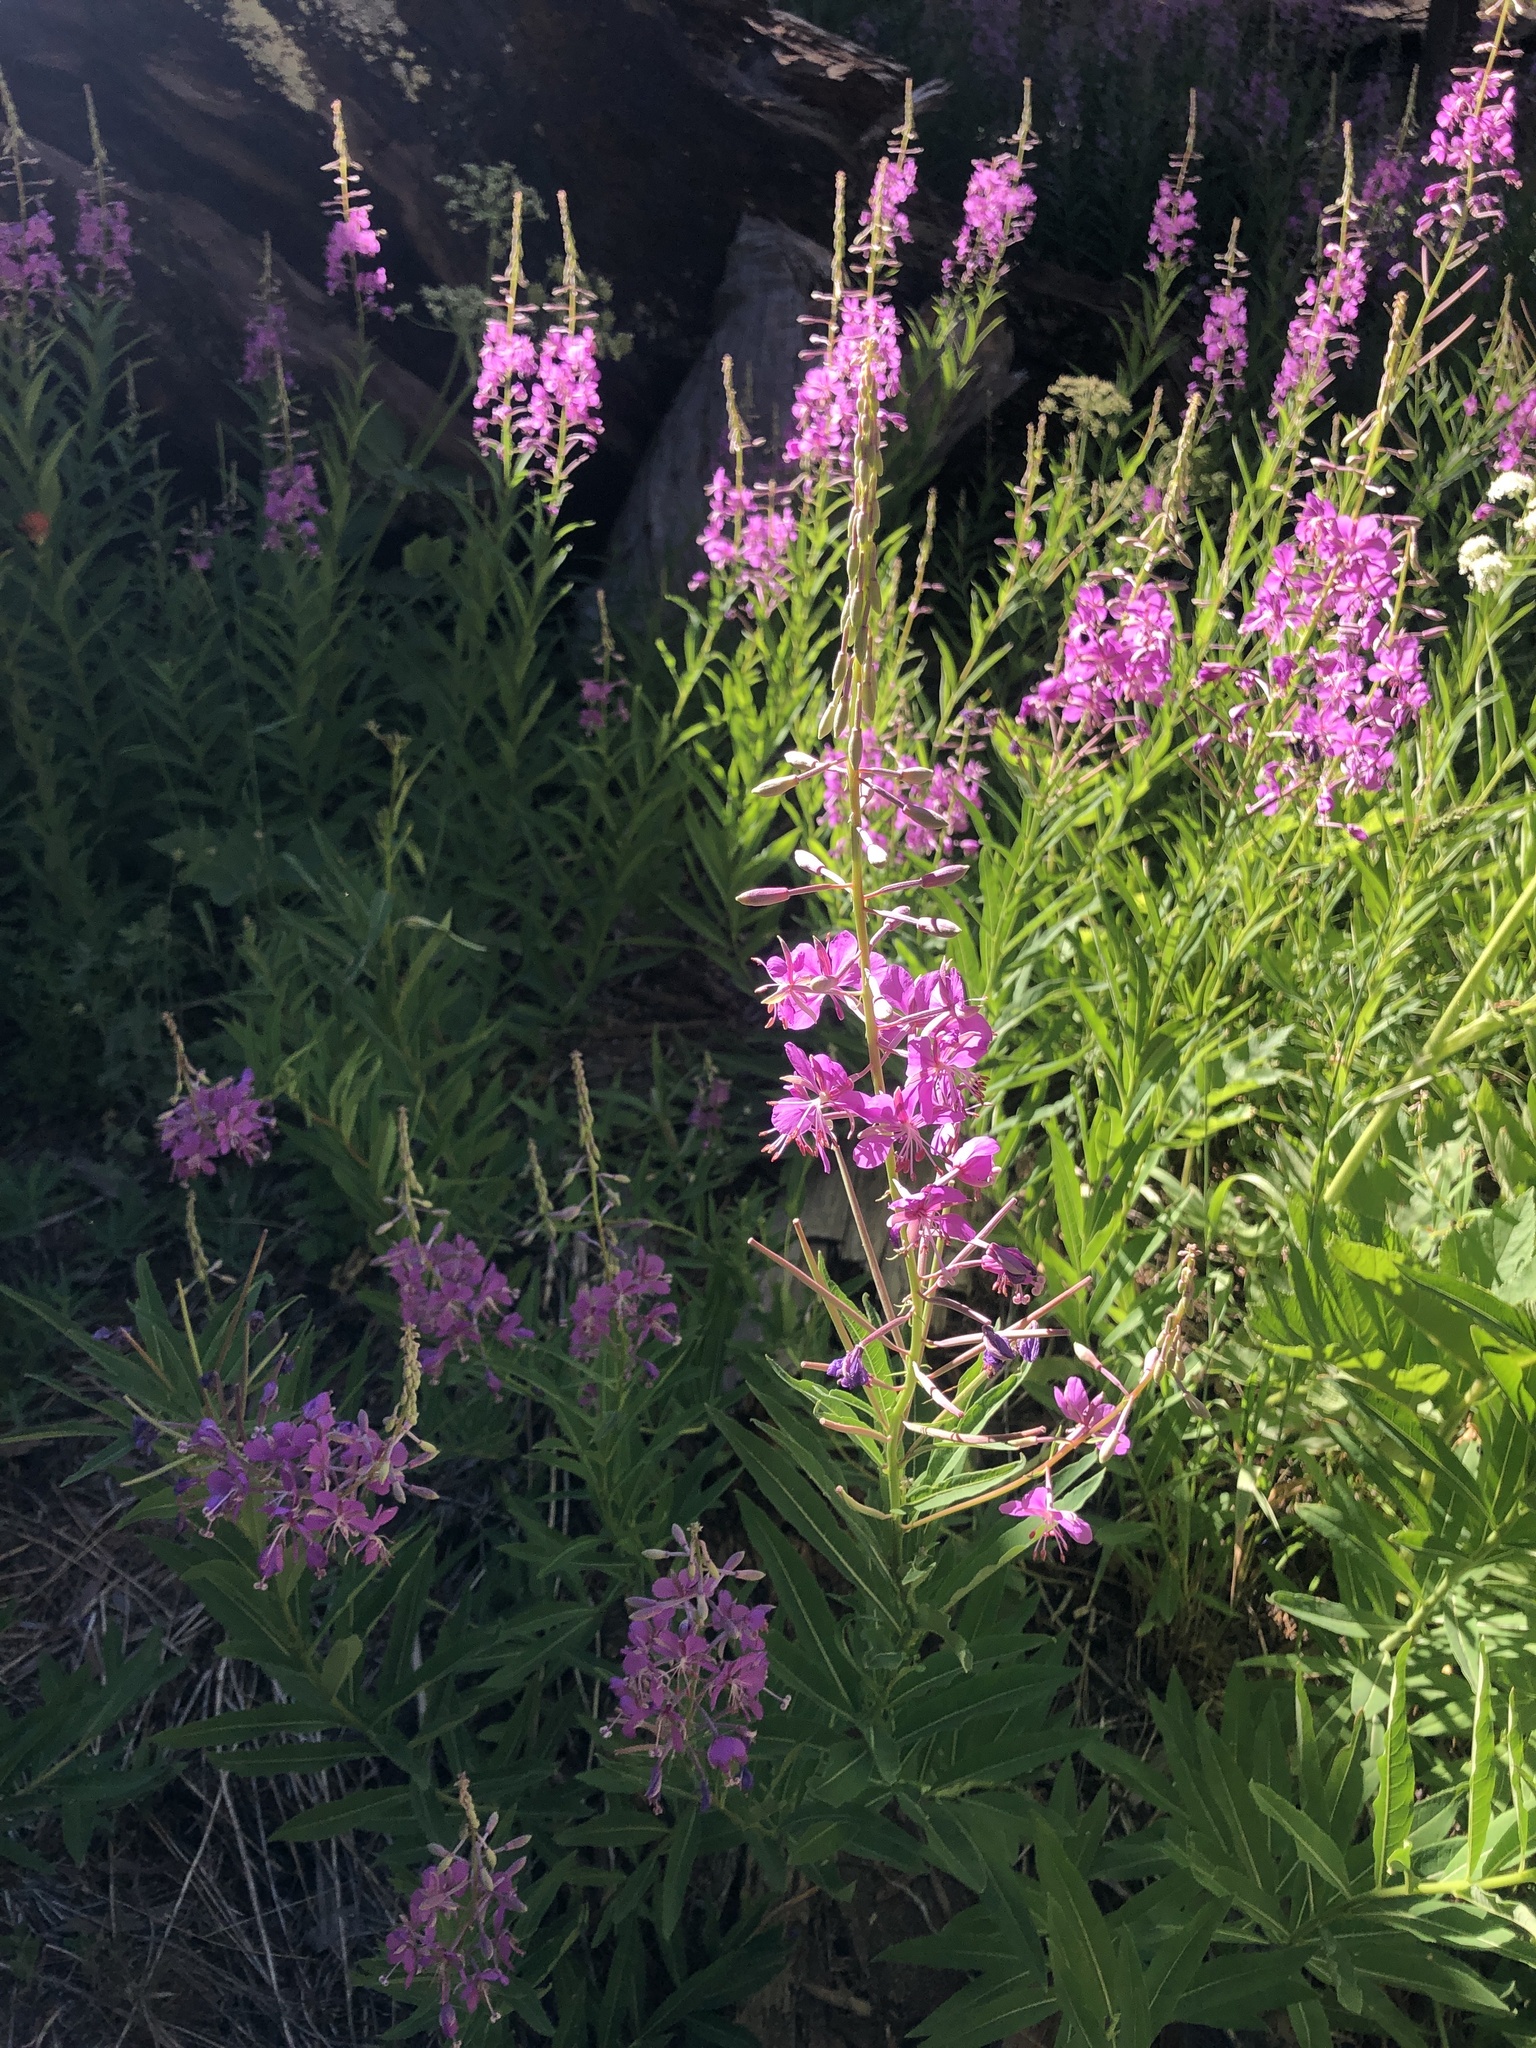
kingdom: Plantae
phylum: Tracheophyta
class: Magnoliopsida
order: Myrtales
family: Onagraceae
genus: Chamaenerion
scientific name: Chamaenerion angustifolium
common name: Fireweed
